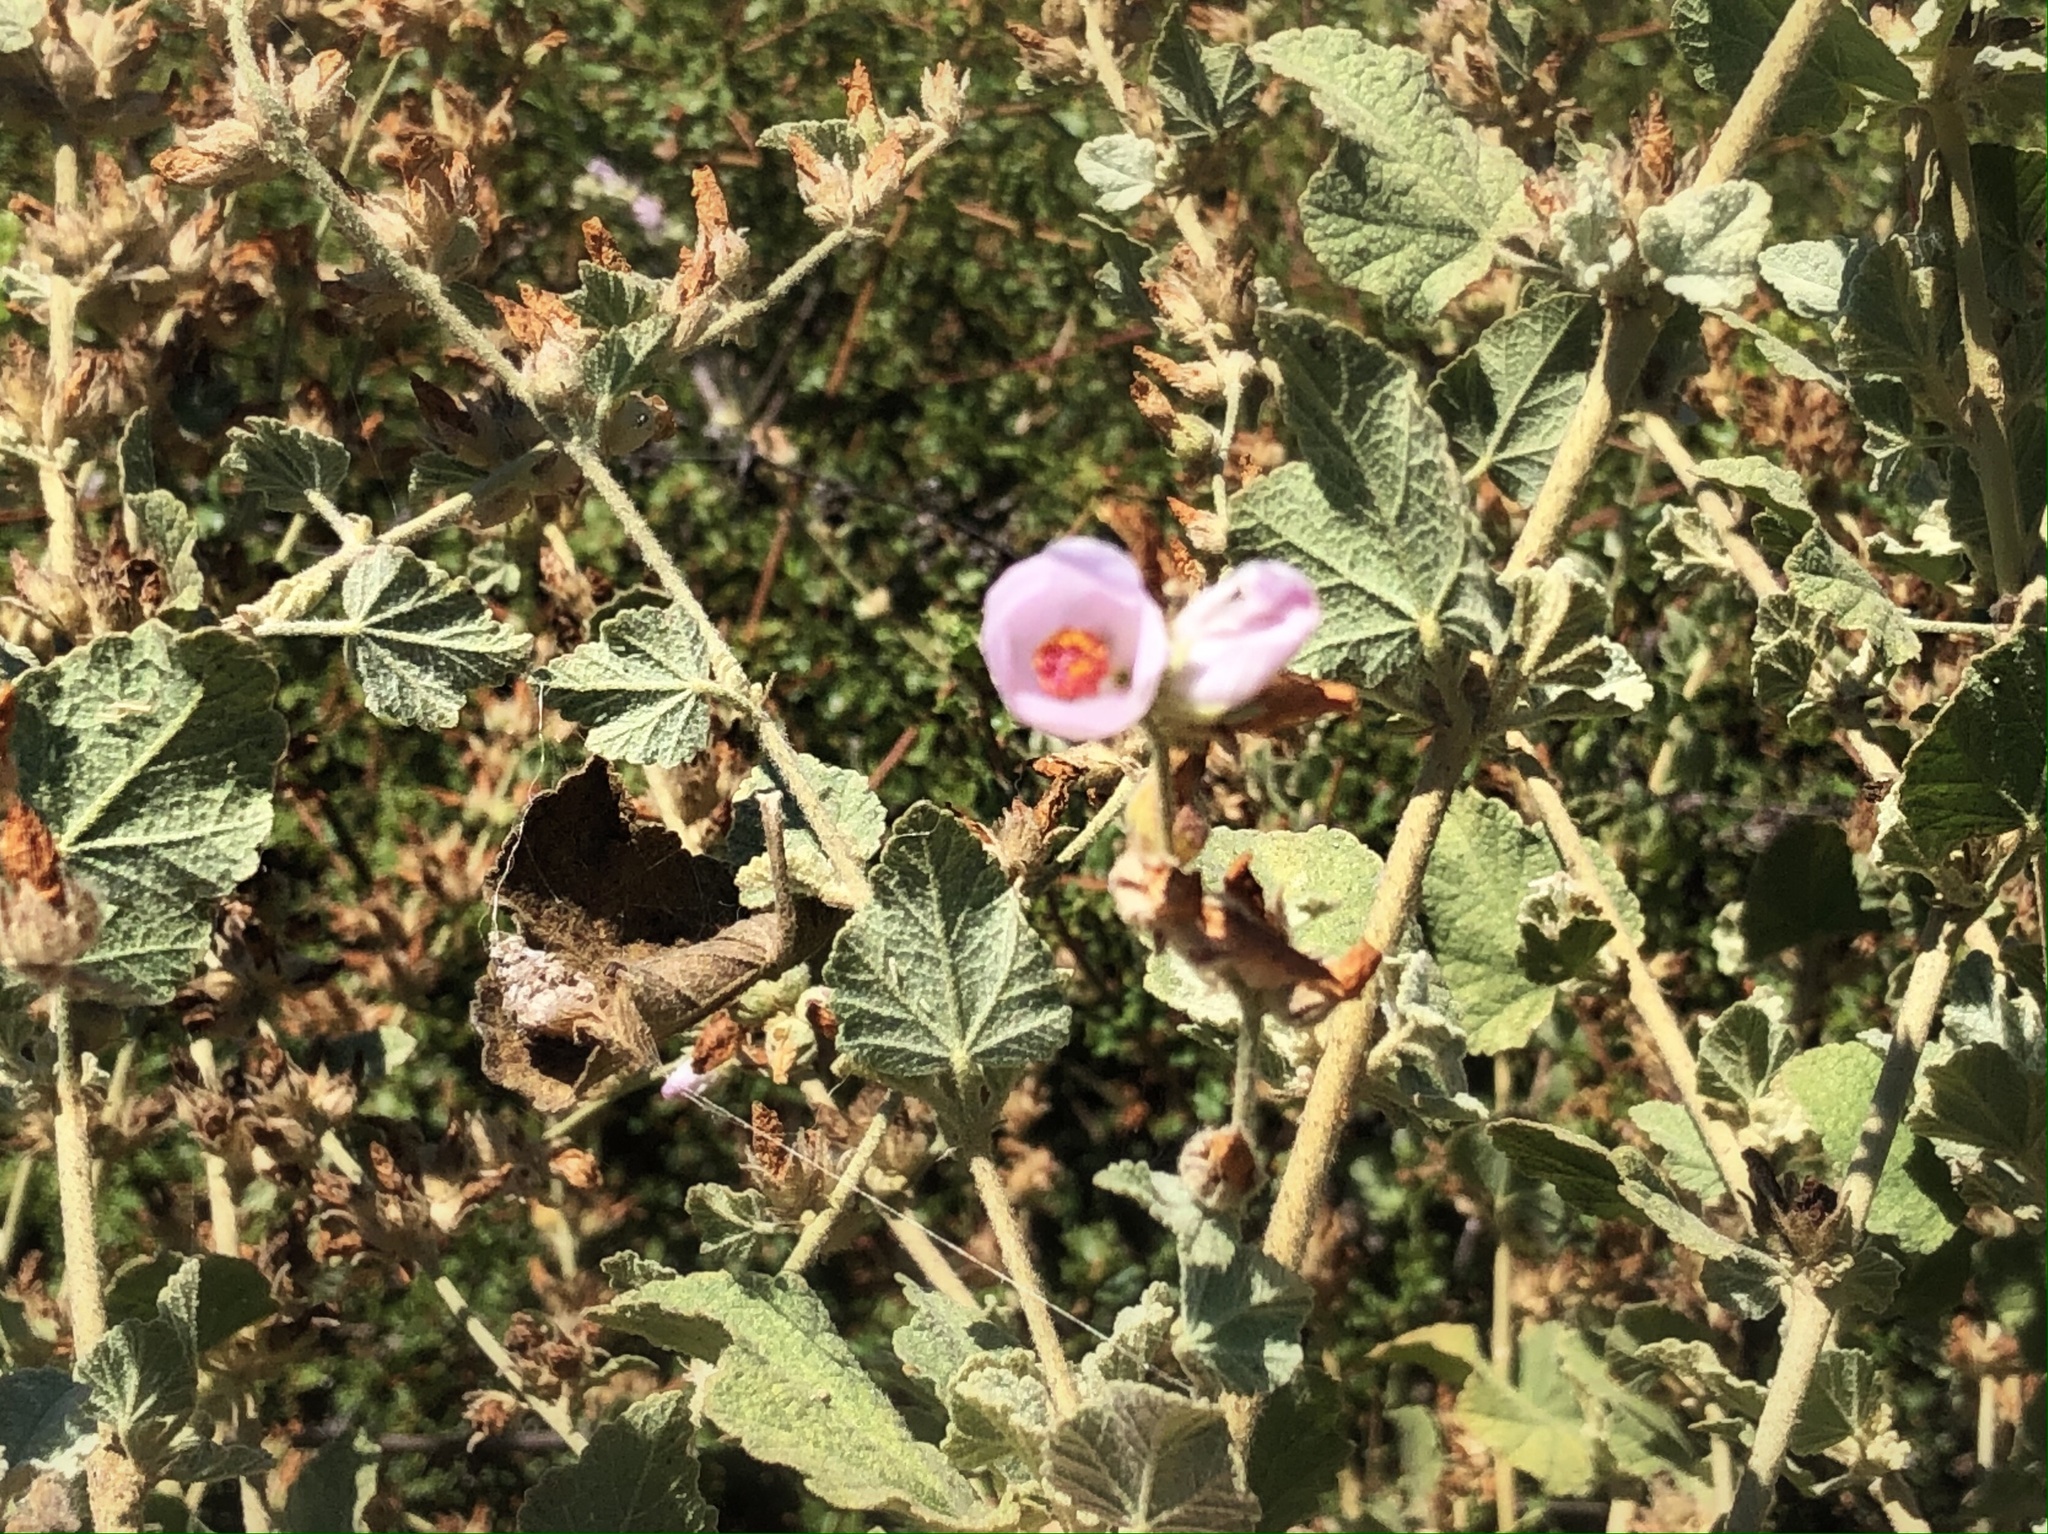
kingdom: Plantae
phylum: Tracheophyta
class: Magnoliopsida
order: Malvales
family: Malvaceae
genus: Malacothamnus
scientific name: Malacothamnus fasciculatus
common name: Sant cruz island bush-mallow
